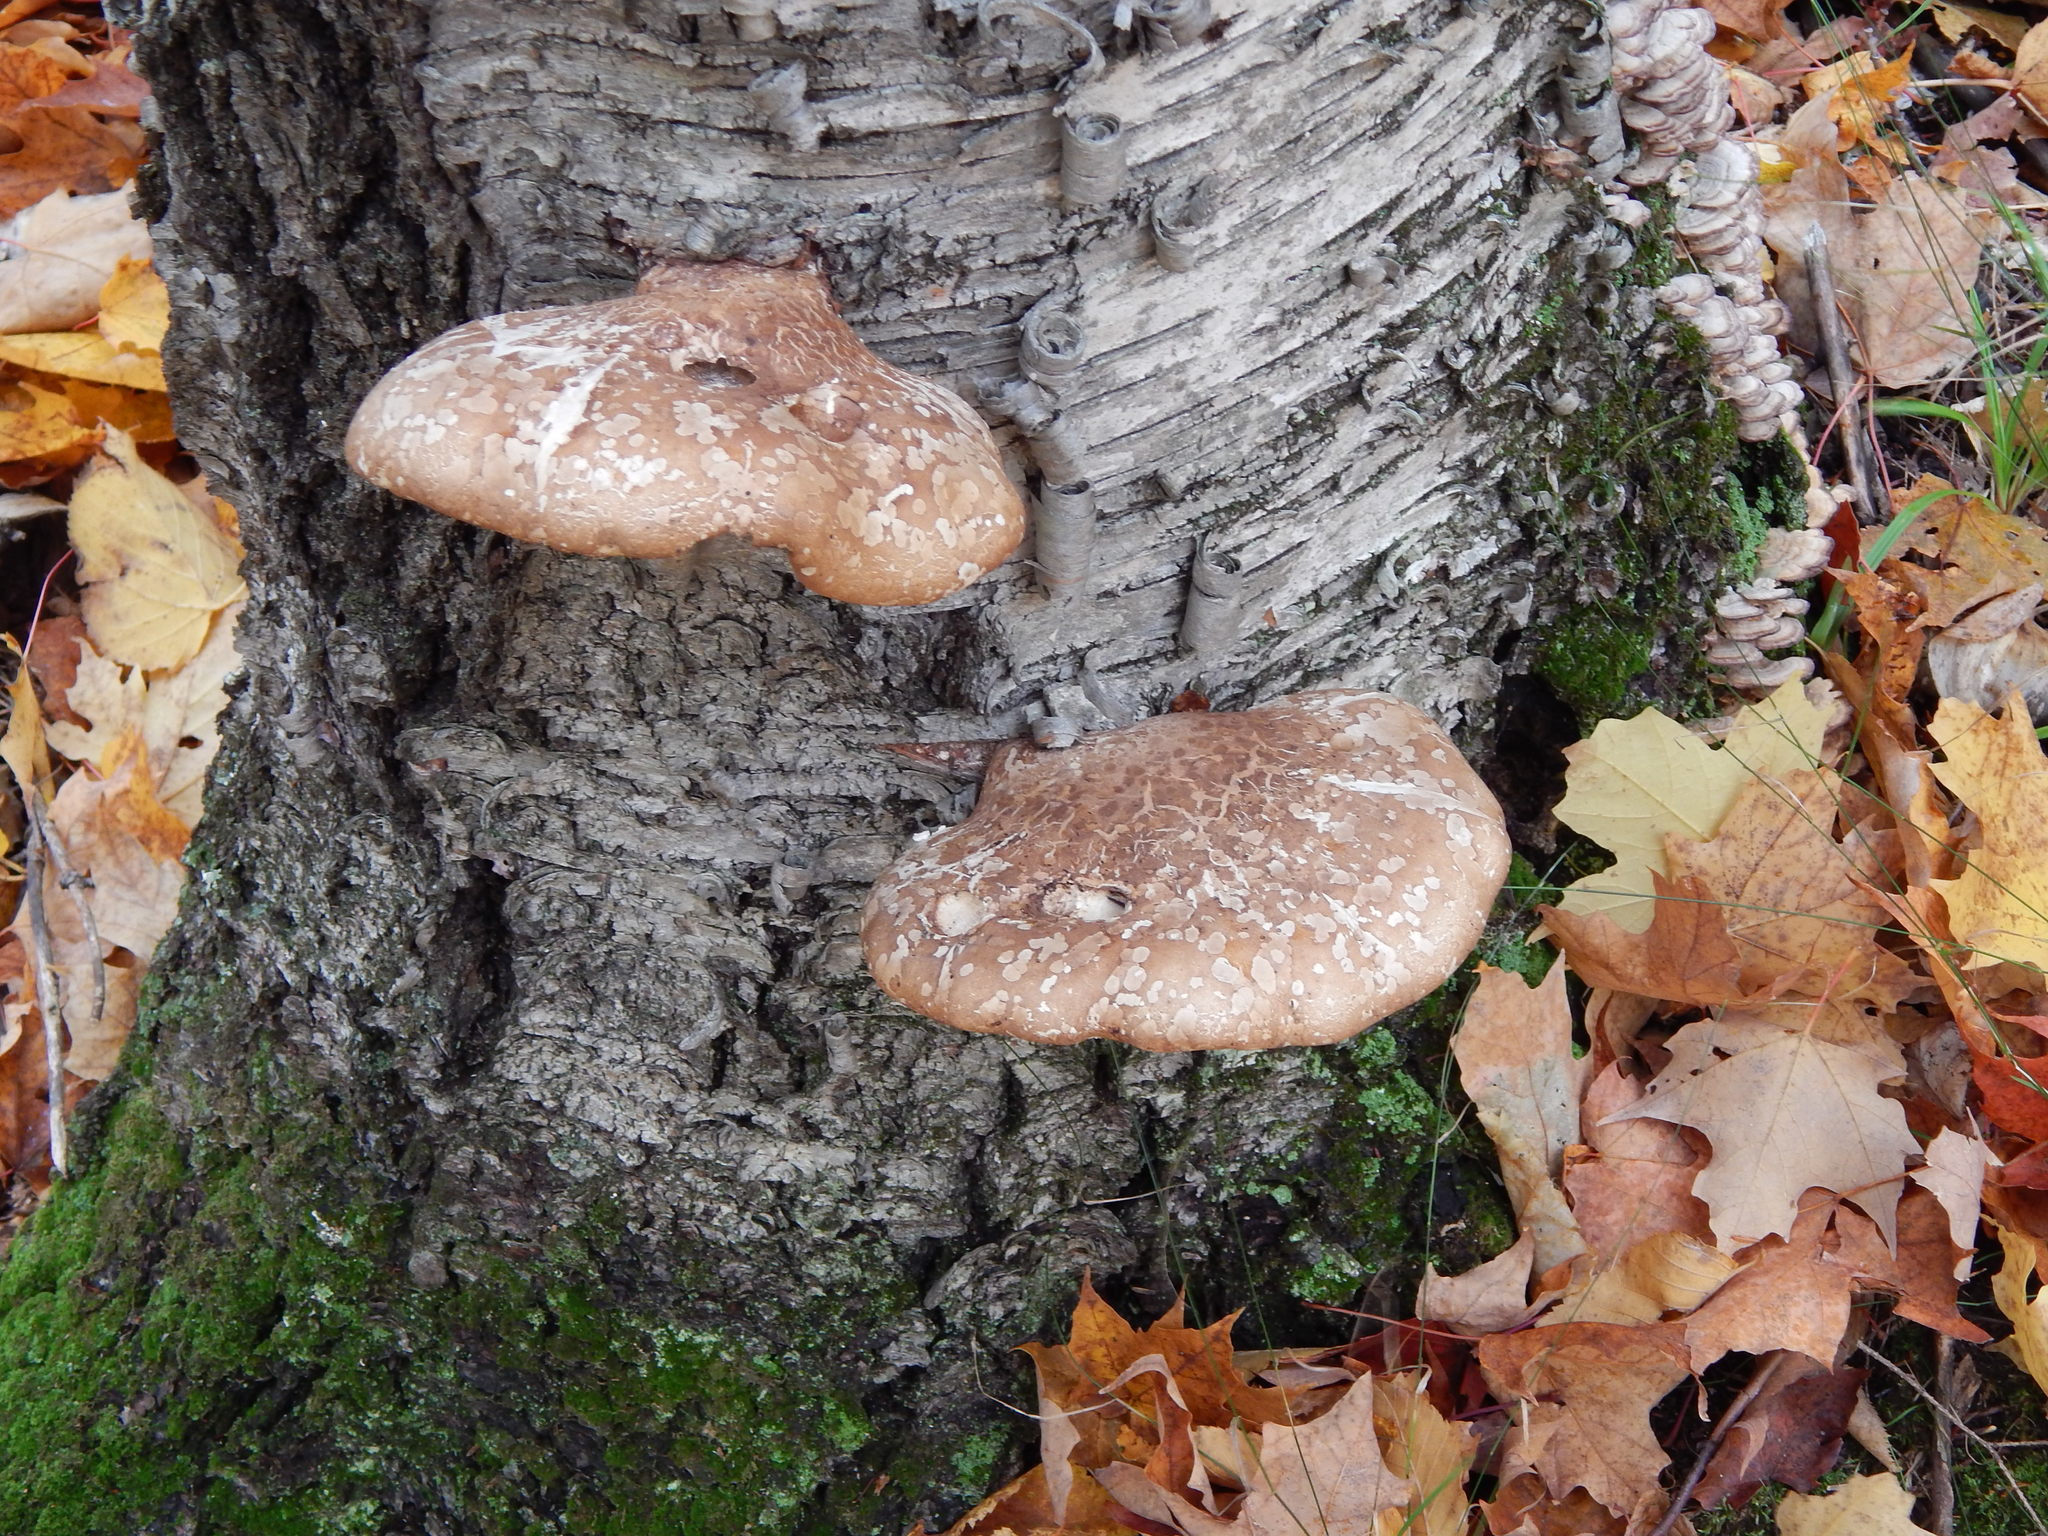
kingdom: Fungi
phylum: Basidiomycota
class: Agaricomycetes
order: Polyporales
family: Fomitopsidaceae
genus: Fomitopsis
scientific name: Fomitopsis betulina
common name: Birch polypore
